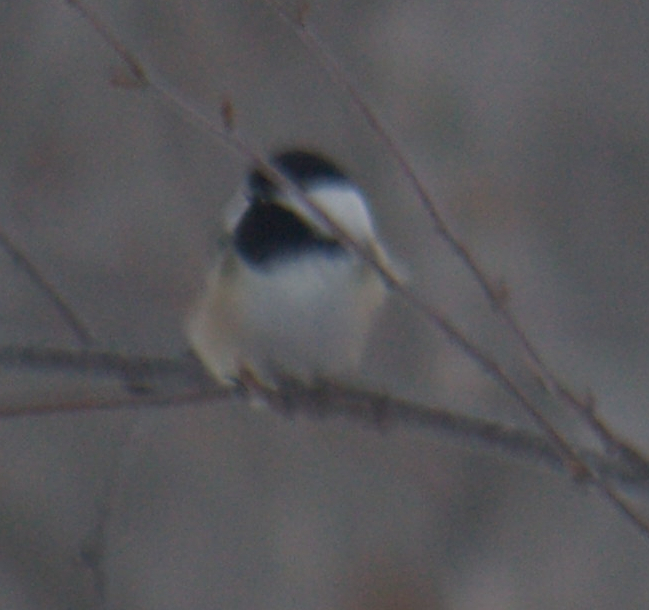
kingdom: Animalia
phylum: Chordata
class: Aves
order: Passeriformes
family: Paridae
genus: Poecile
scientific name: Poecile atricapillus
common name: Black-capped chickadee
